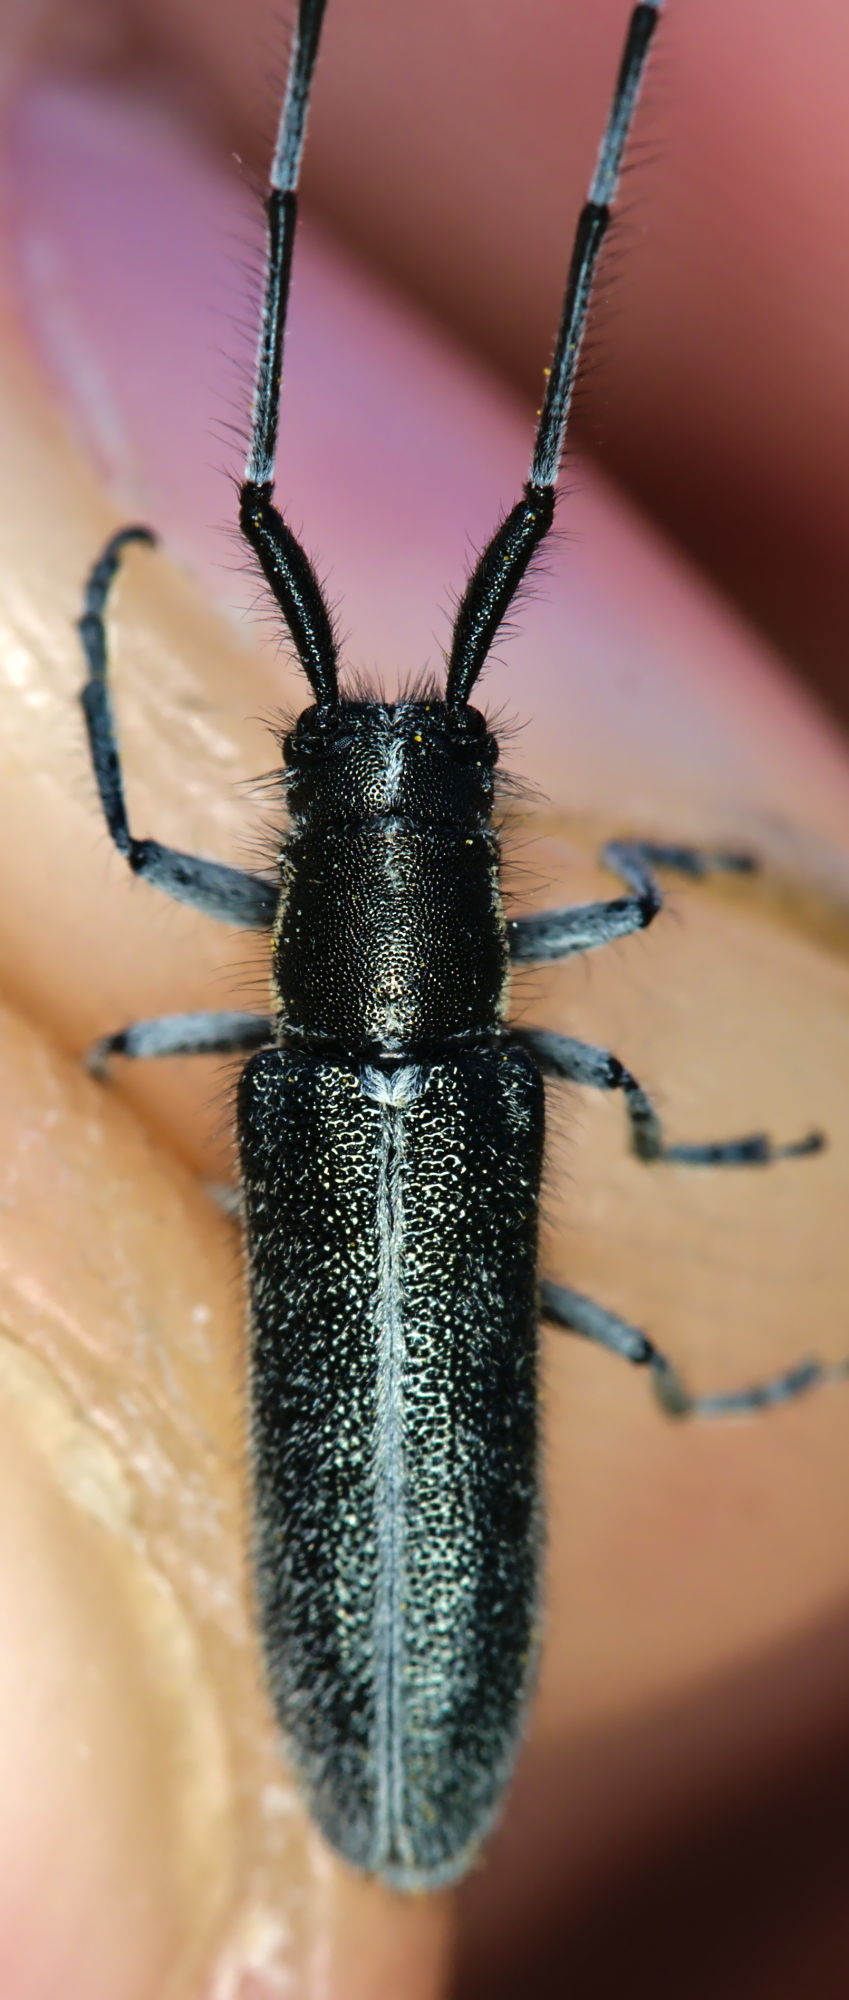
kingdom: Animalia
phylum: Arthropoda
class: Insecta
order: Coleoptera
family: Cerambycidae
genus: Agapanthia
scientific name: Agapanthia cardui
